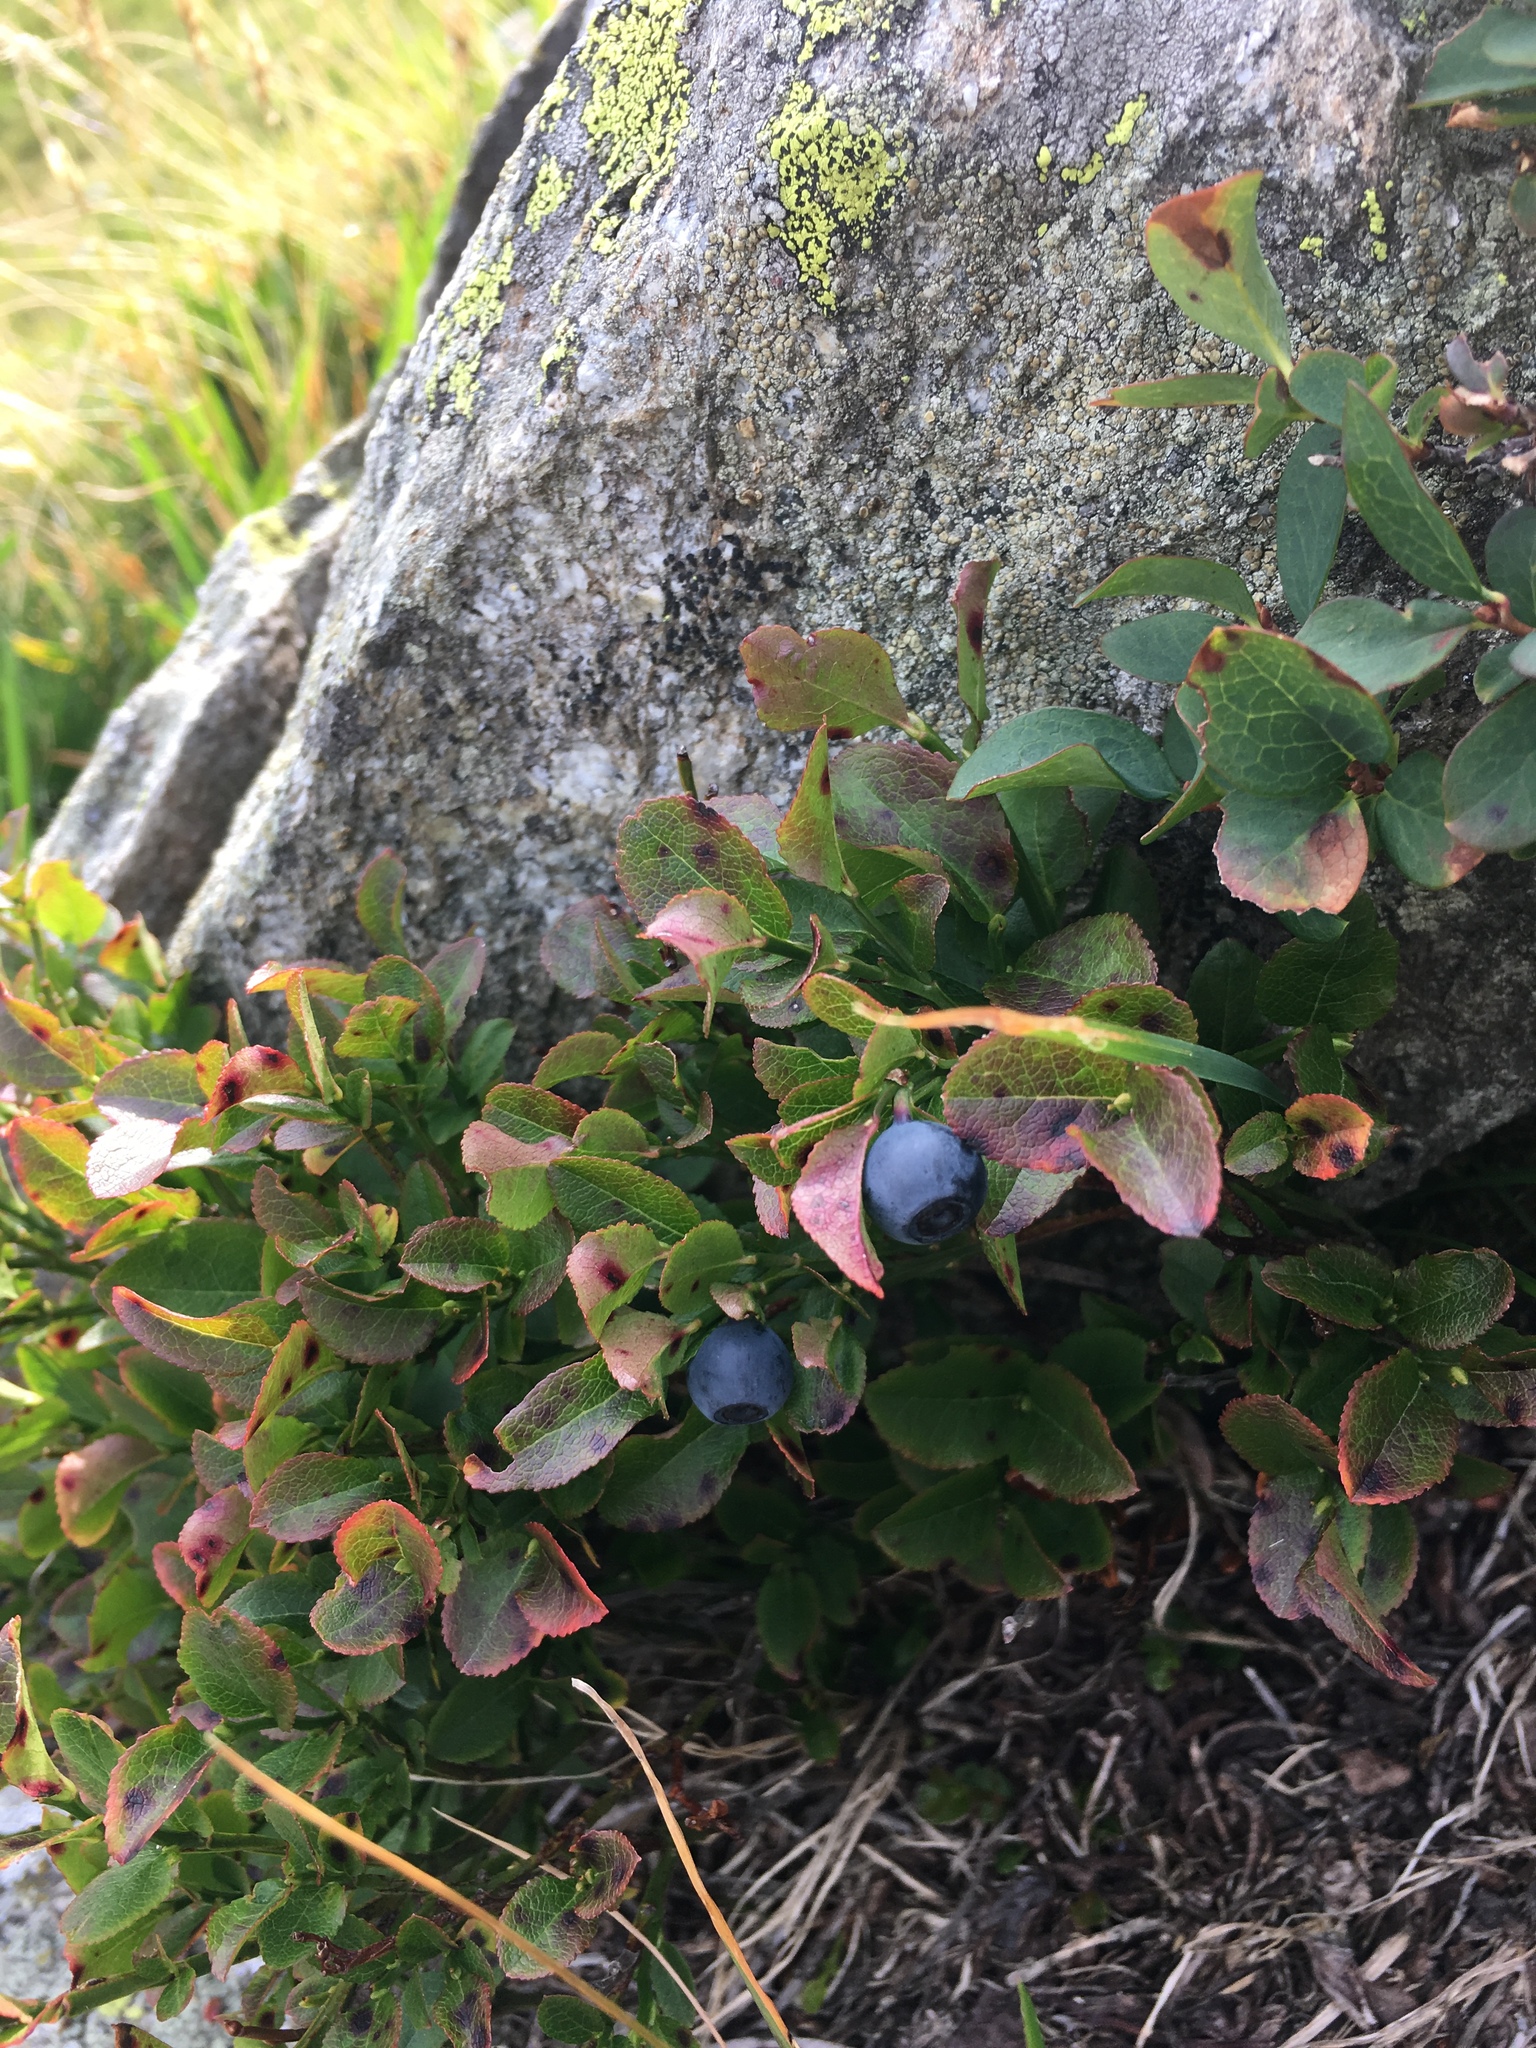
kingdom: Plantae
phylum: Tracheophyta
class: Magnoliopsida
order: Ericales
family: Ericaceae
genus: Vaccinium
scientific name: Vaccinium myrtillus
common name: Bilberry
